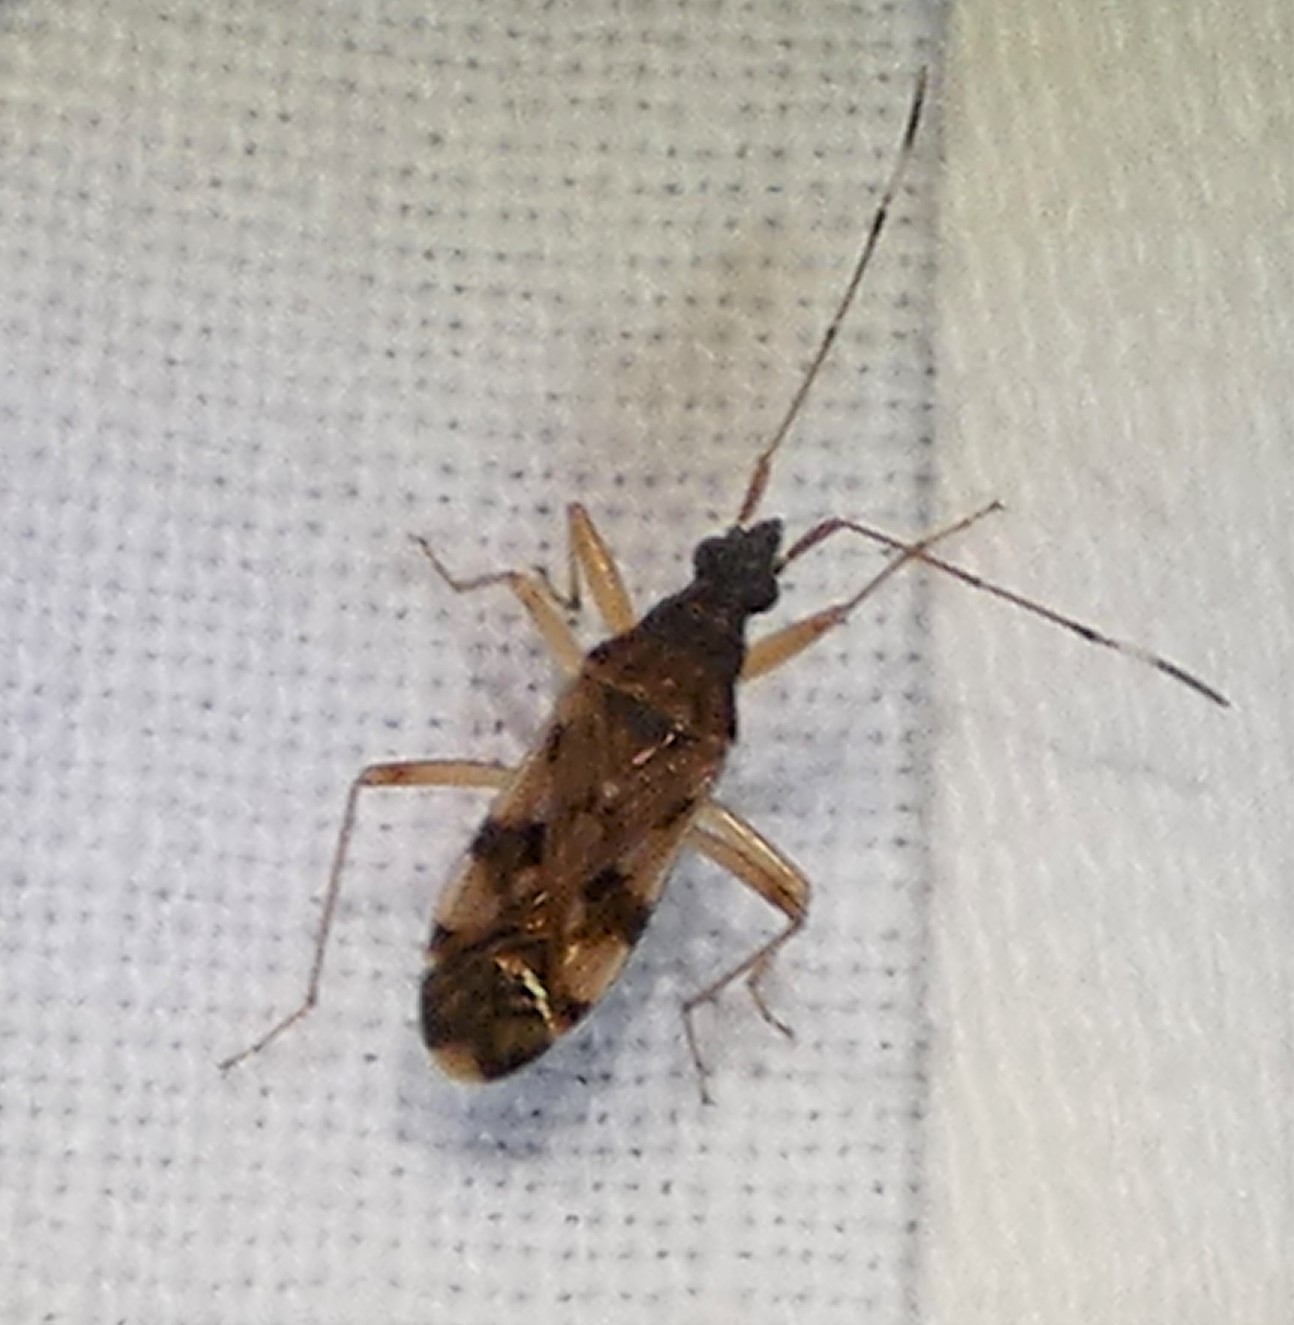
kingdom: Animalia
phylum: Arthropoda
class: Insecta
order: Hemiptera
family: Rhyparochromidae
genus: Ozophora
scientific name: Ozophora picturata
